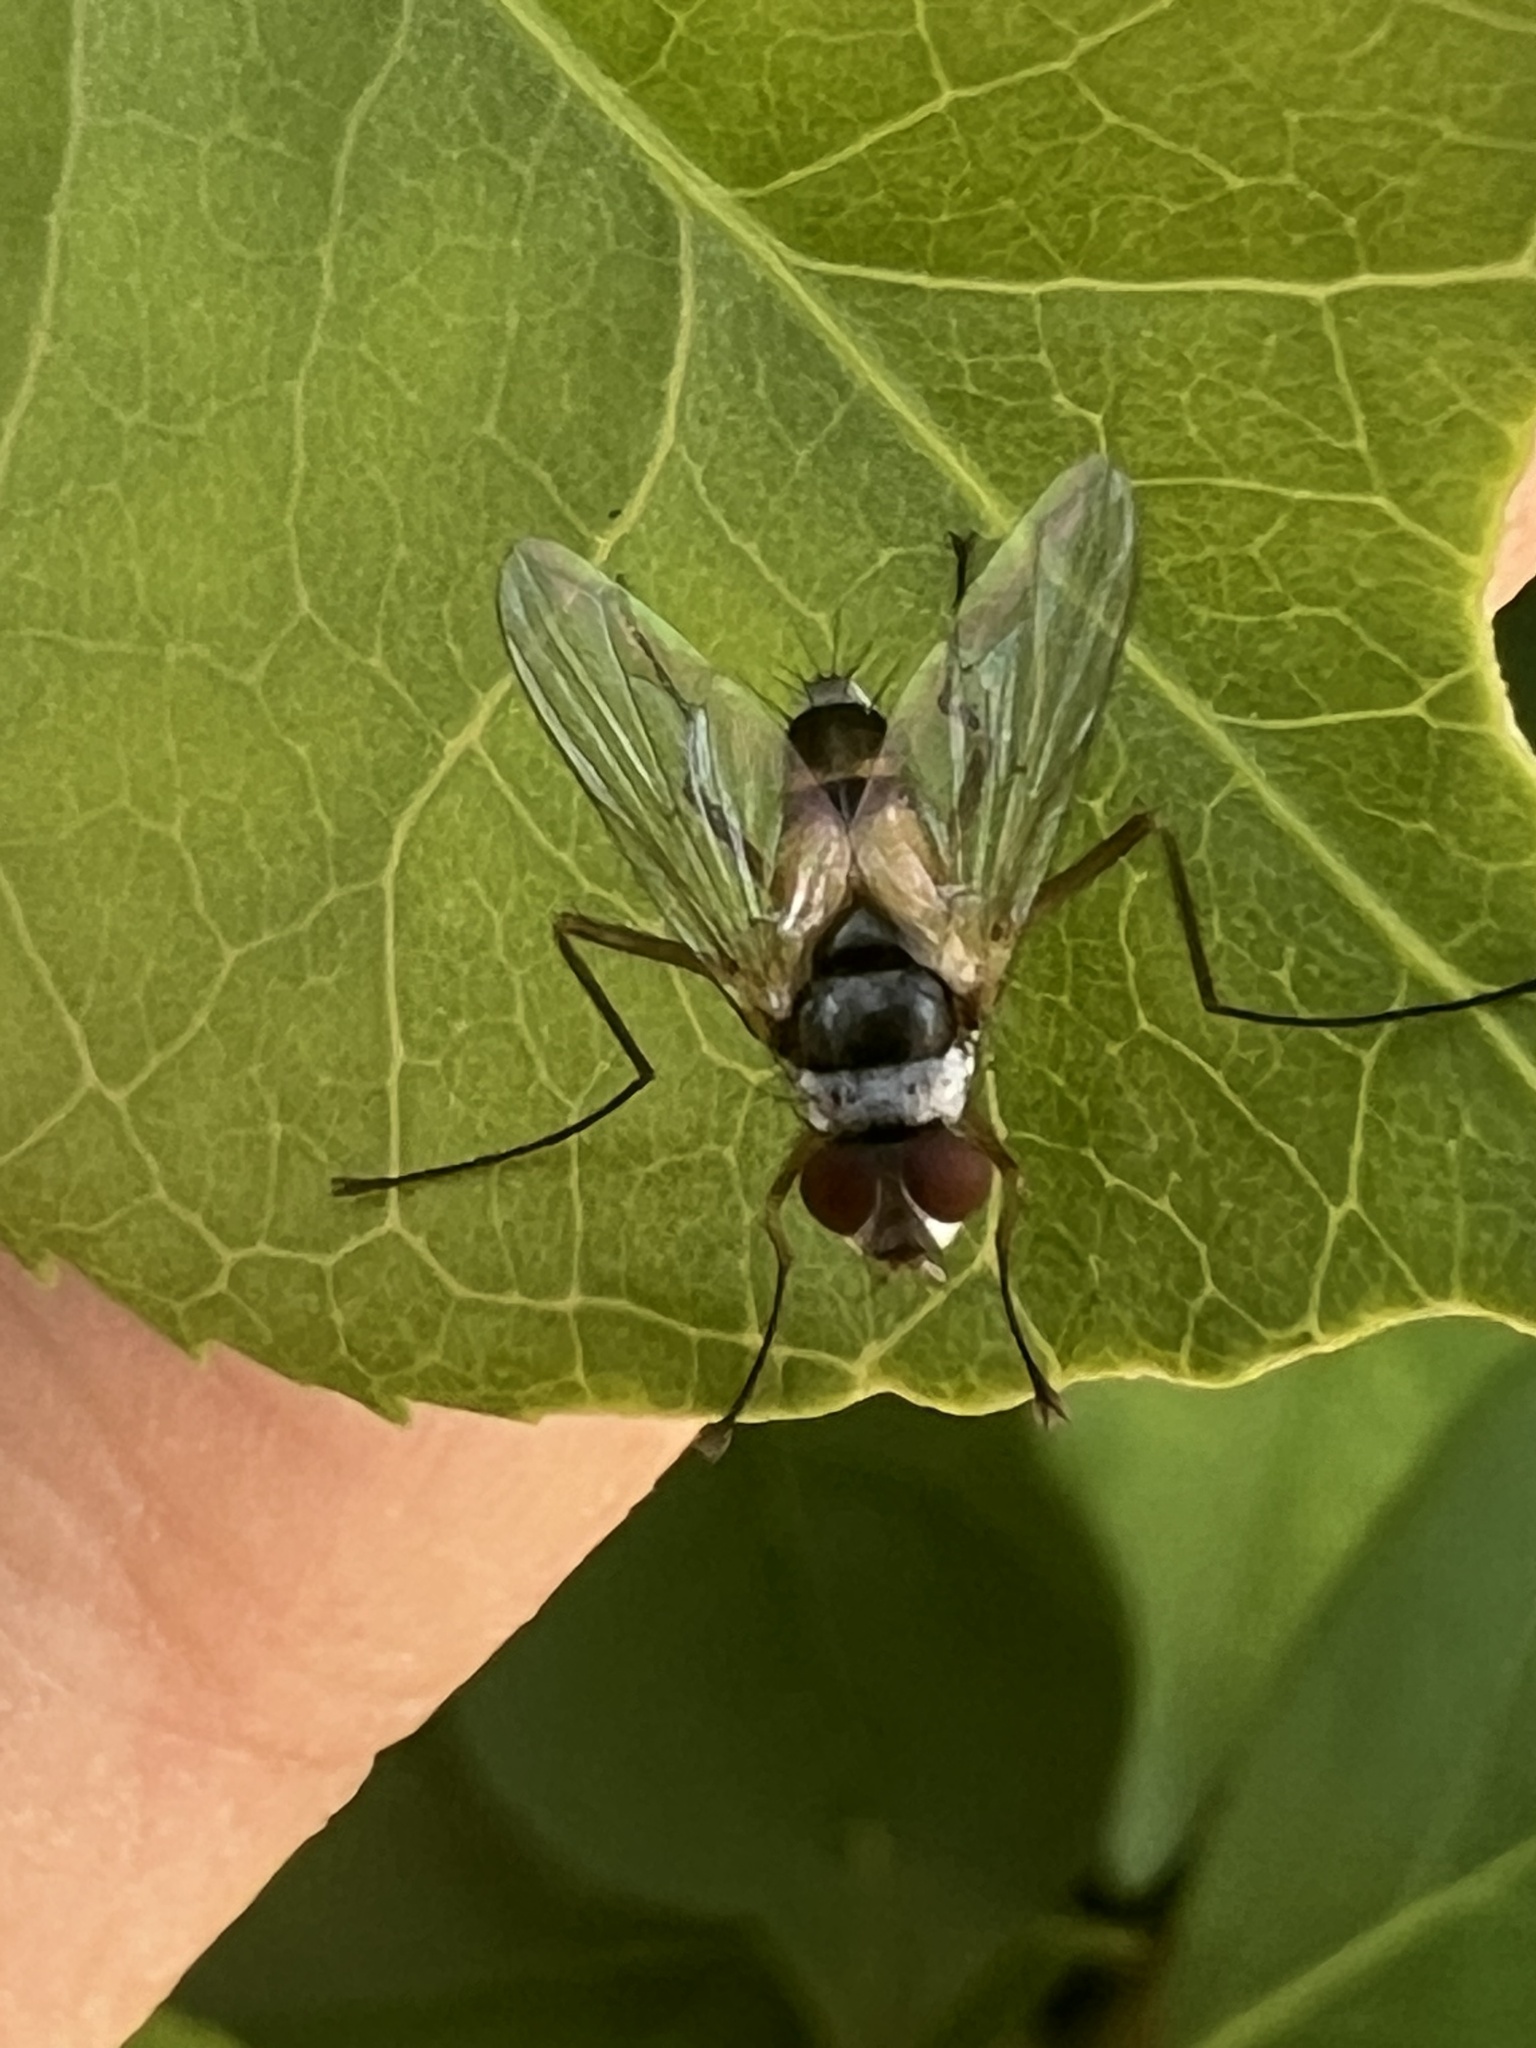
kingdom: Animalia
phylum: Arthropoda
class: Insecta
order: Diptera
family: Tachinidae
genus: Cholomyia
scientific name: Cholomyia inaequipes
